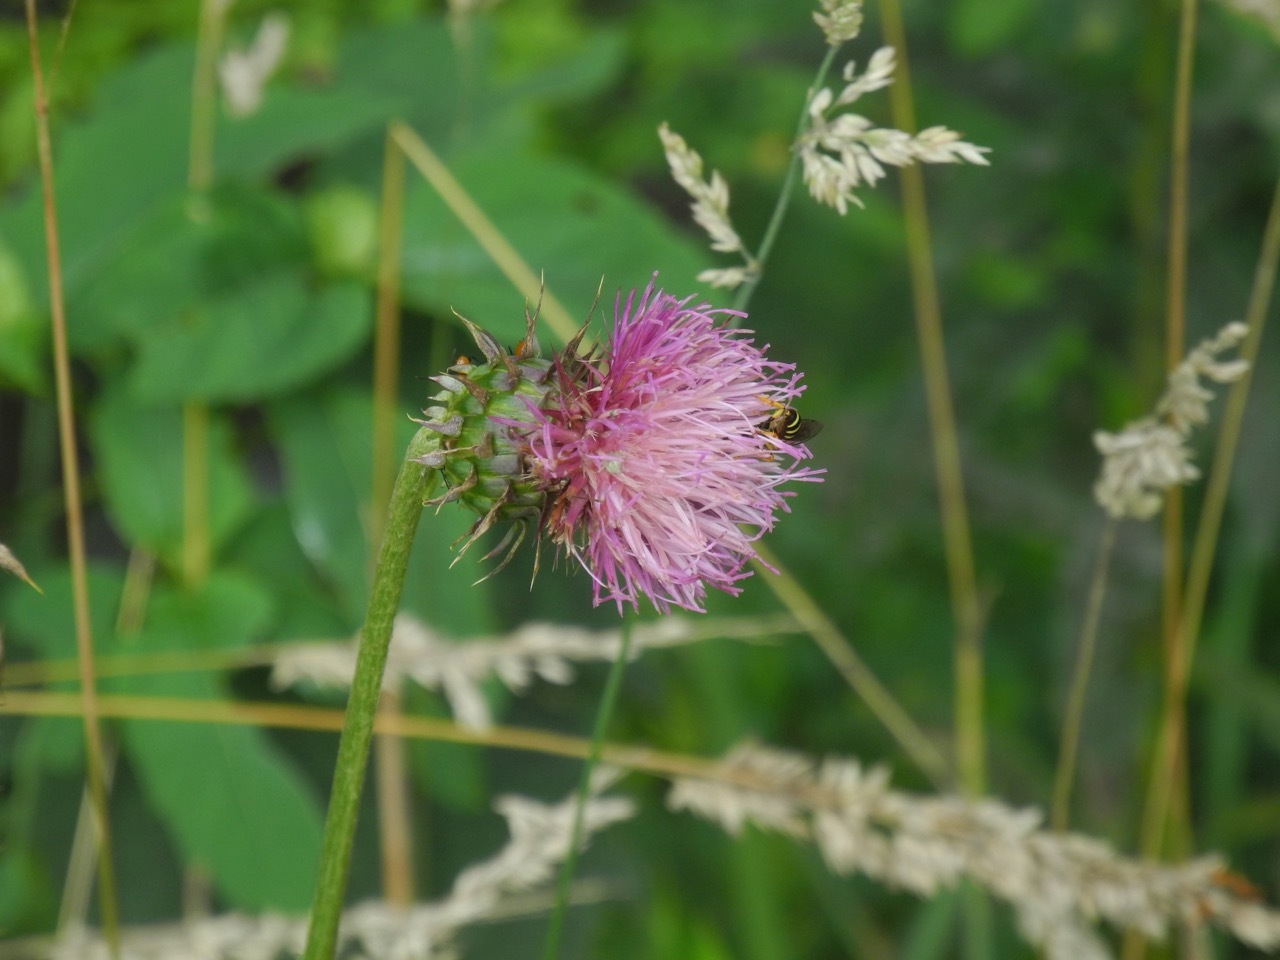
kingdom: Plantae
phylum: Tracheophyta
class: Magnoliopsida
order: Asterales
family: Asteraceae
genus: Carduus
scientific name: Carduus nutans
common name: Musk thistle
